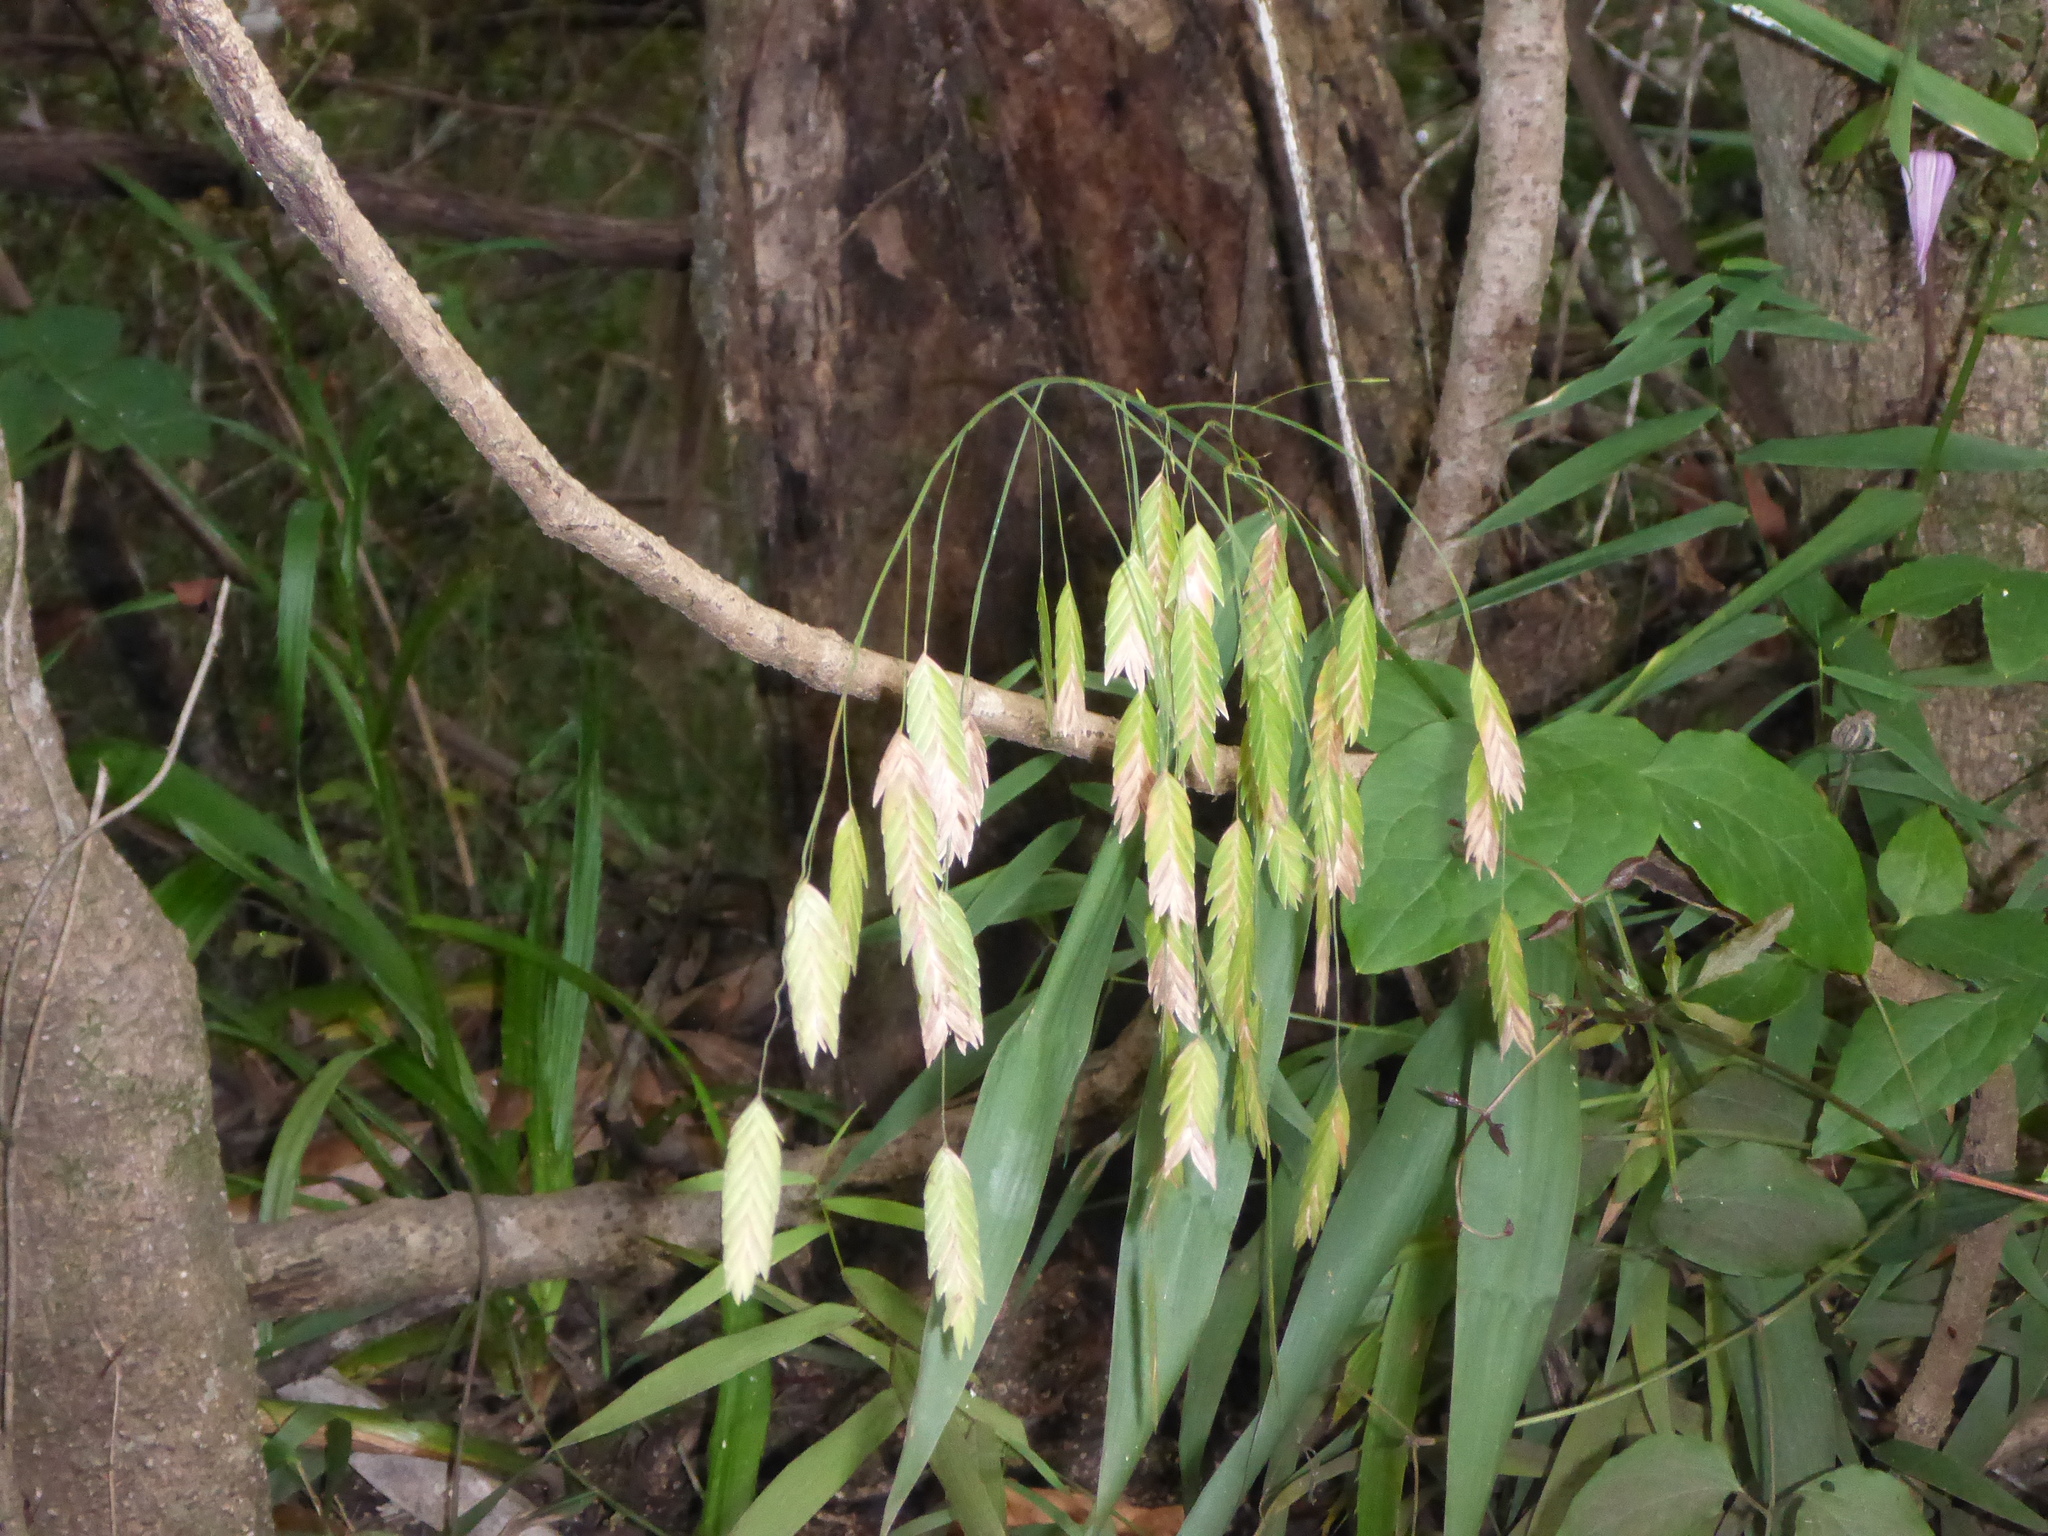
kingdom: Plantae
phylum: Tracheophyta
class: Liliopsida
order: Poales
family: Poaceae
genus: Chasmanthium
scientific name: Chasmanthium latifolium
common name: Broad-leaved chasmanthium
